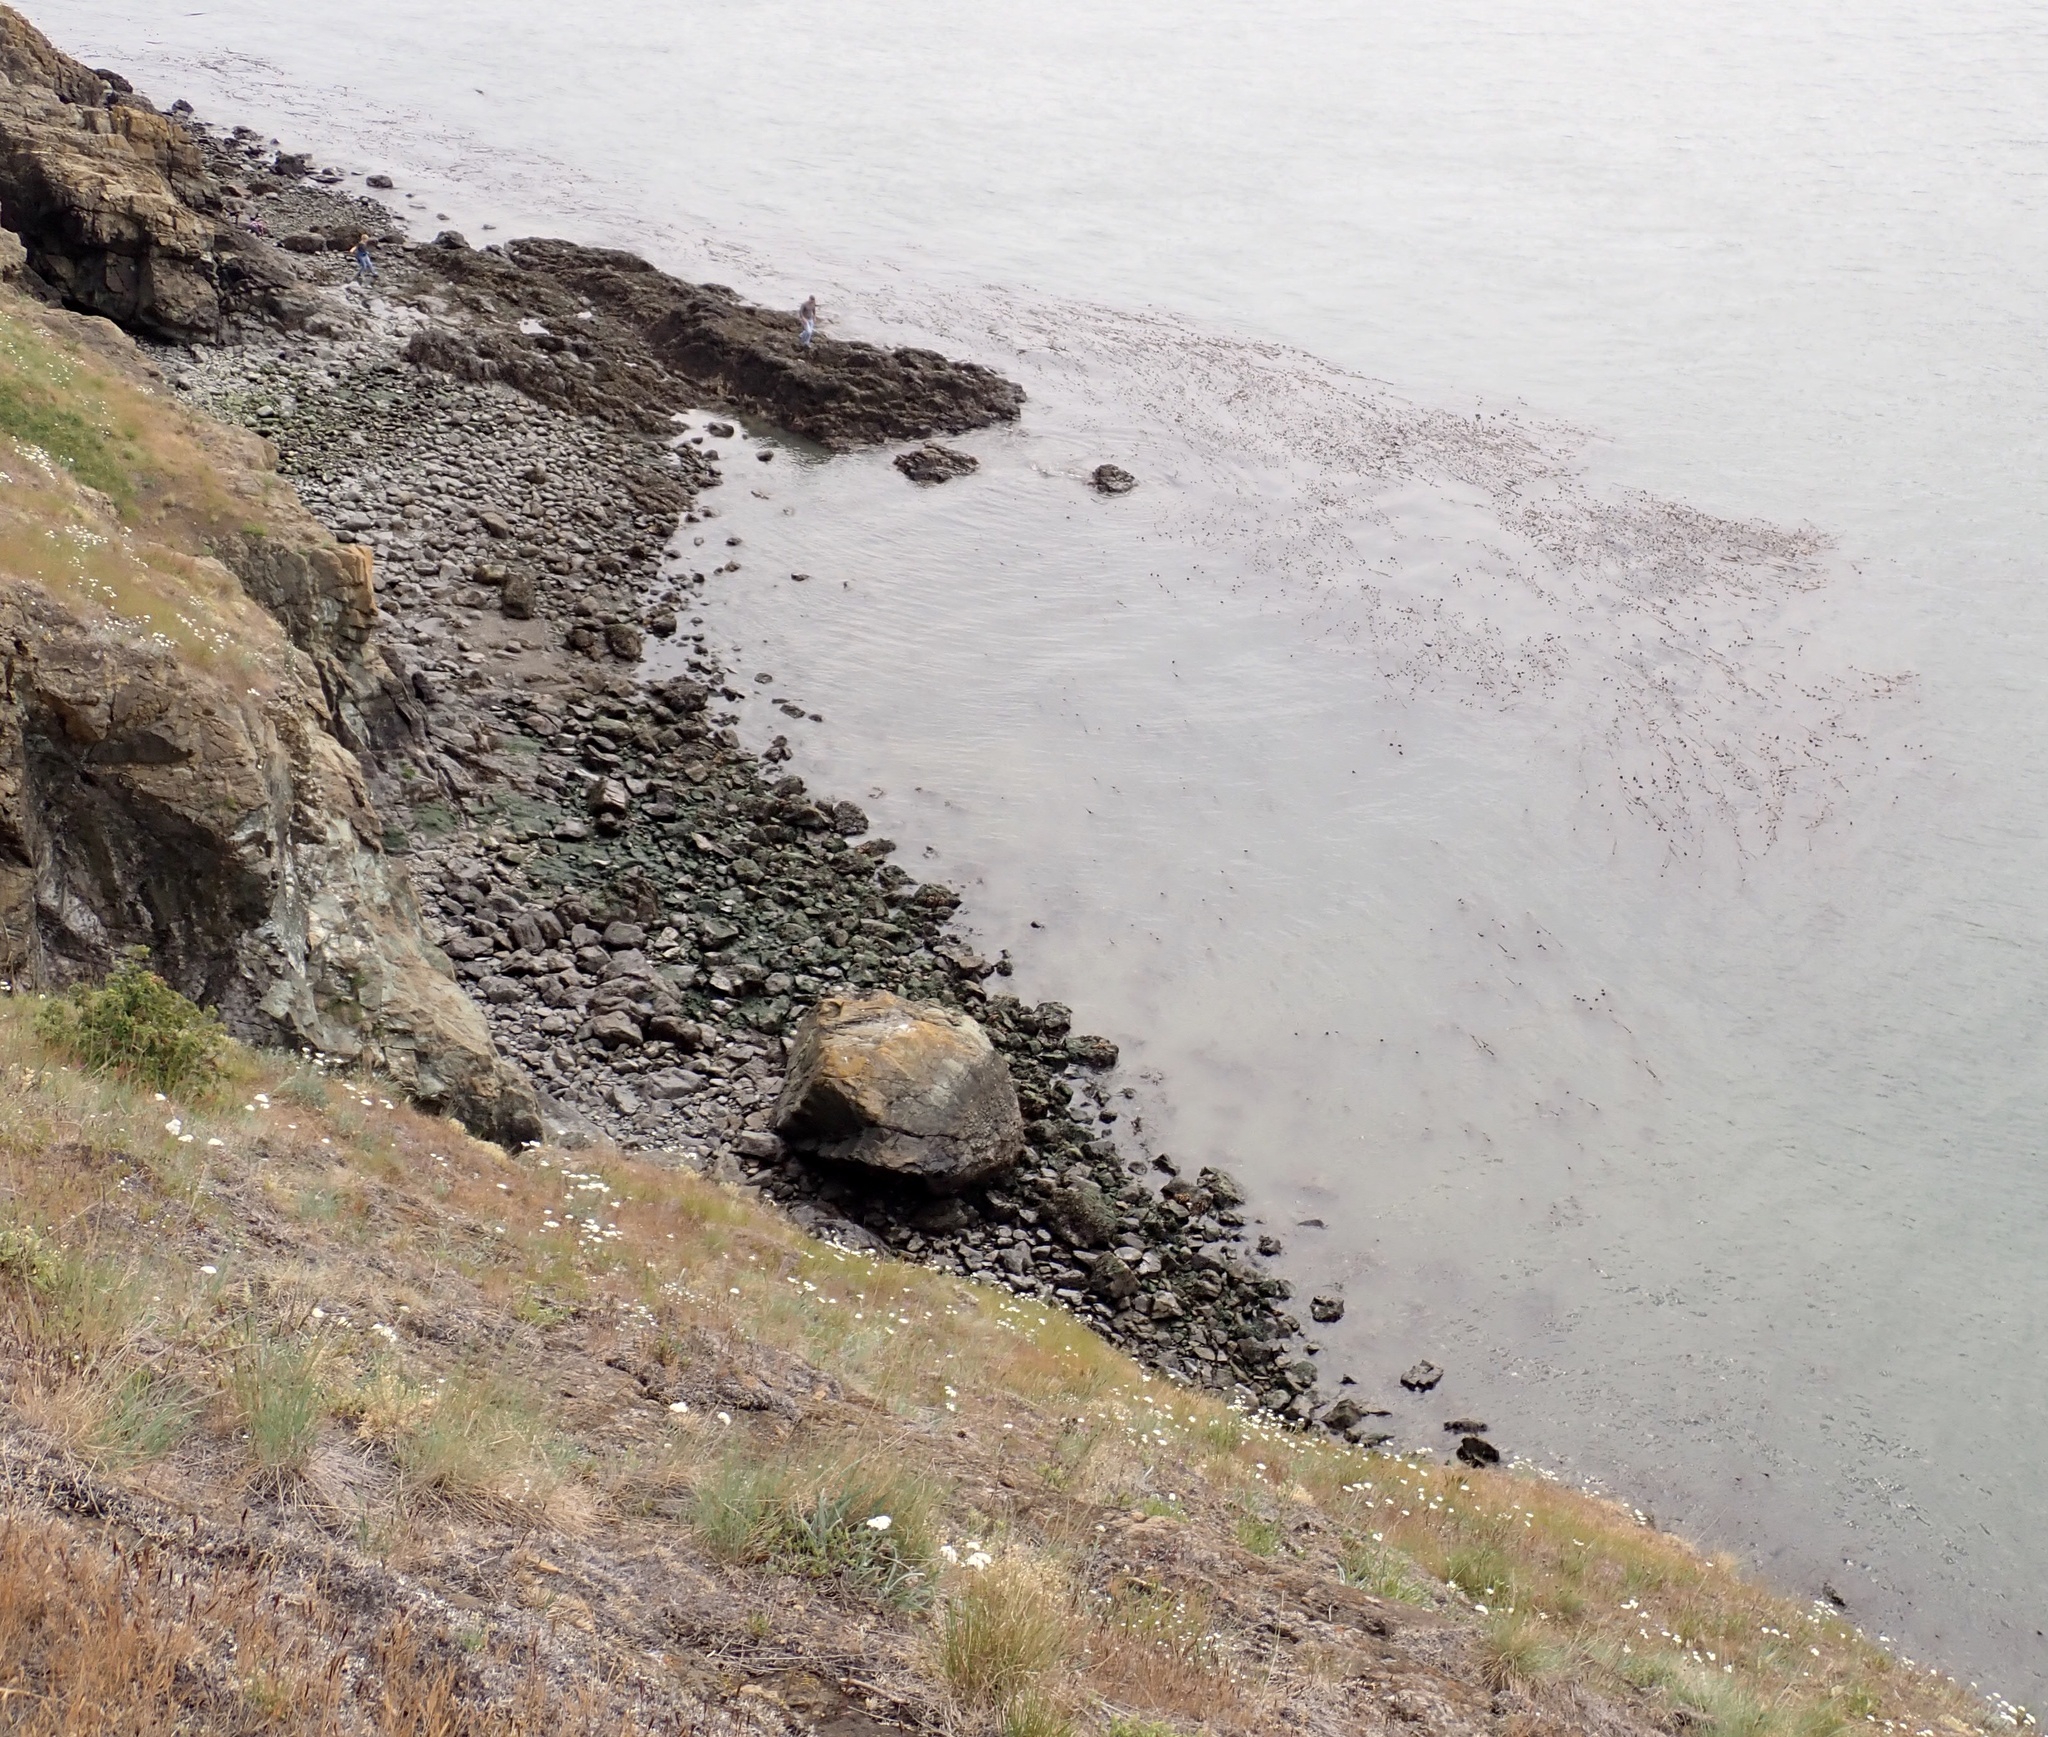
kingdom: Chromista
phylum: Ochrophyta
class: Phaeophyceae
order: Laminariales
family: Laminariaceae
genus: Nereocystis
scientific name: Nereocystis luetkeana
